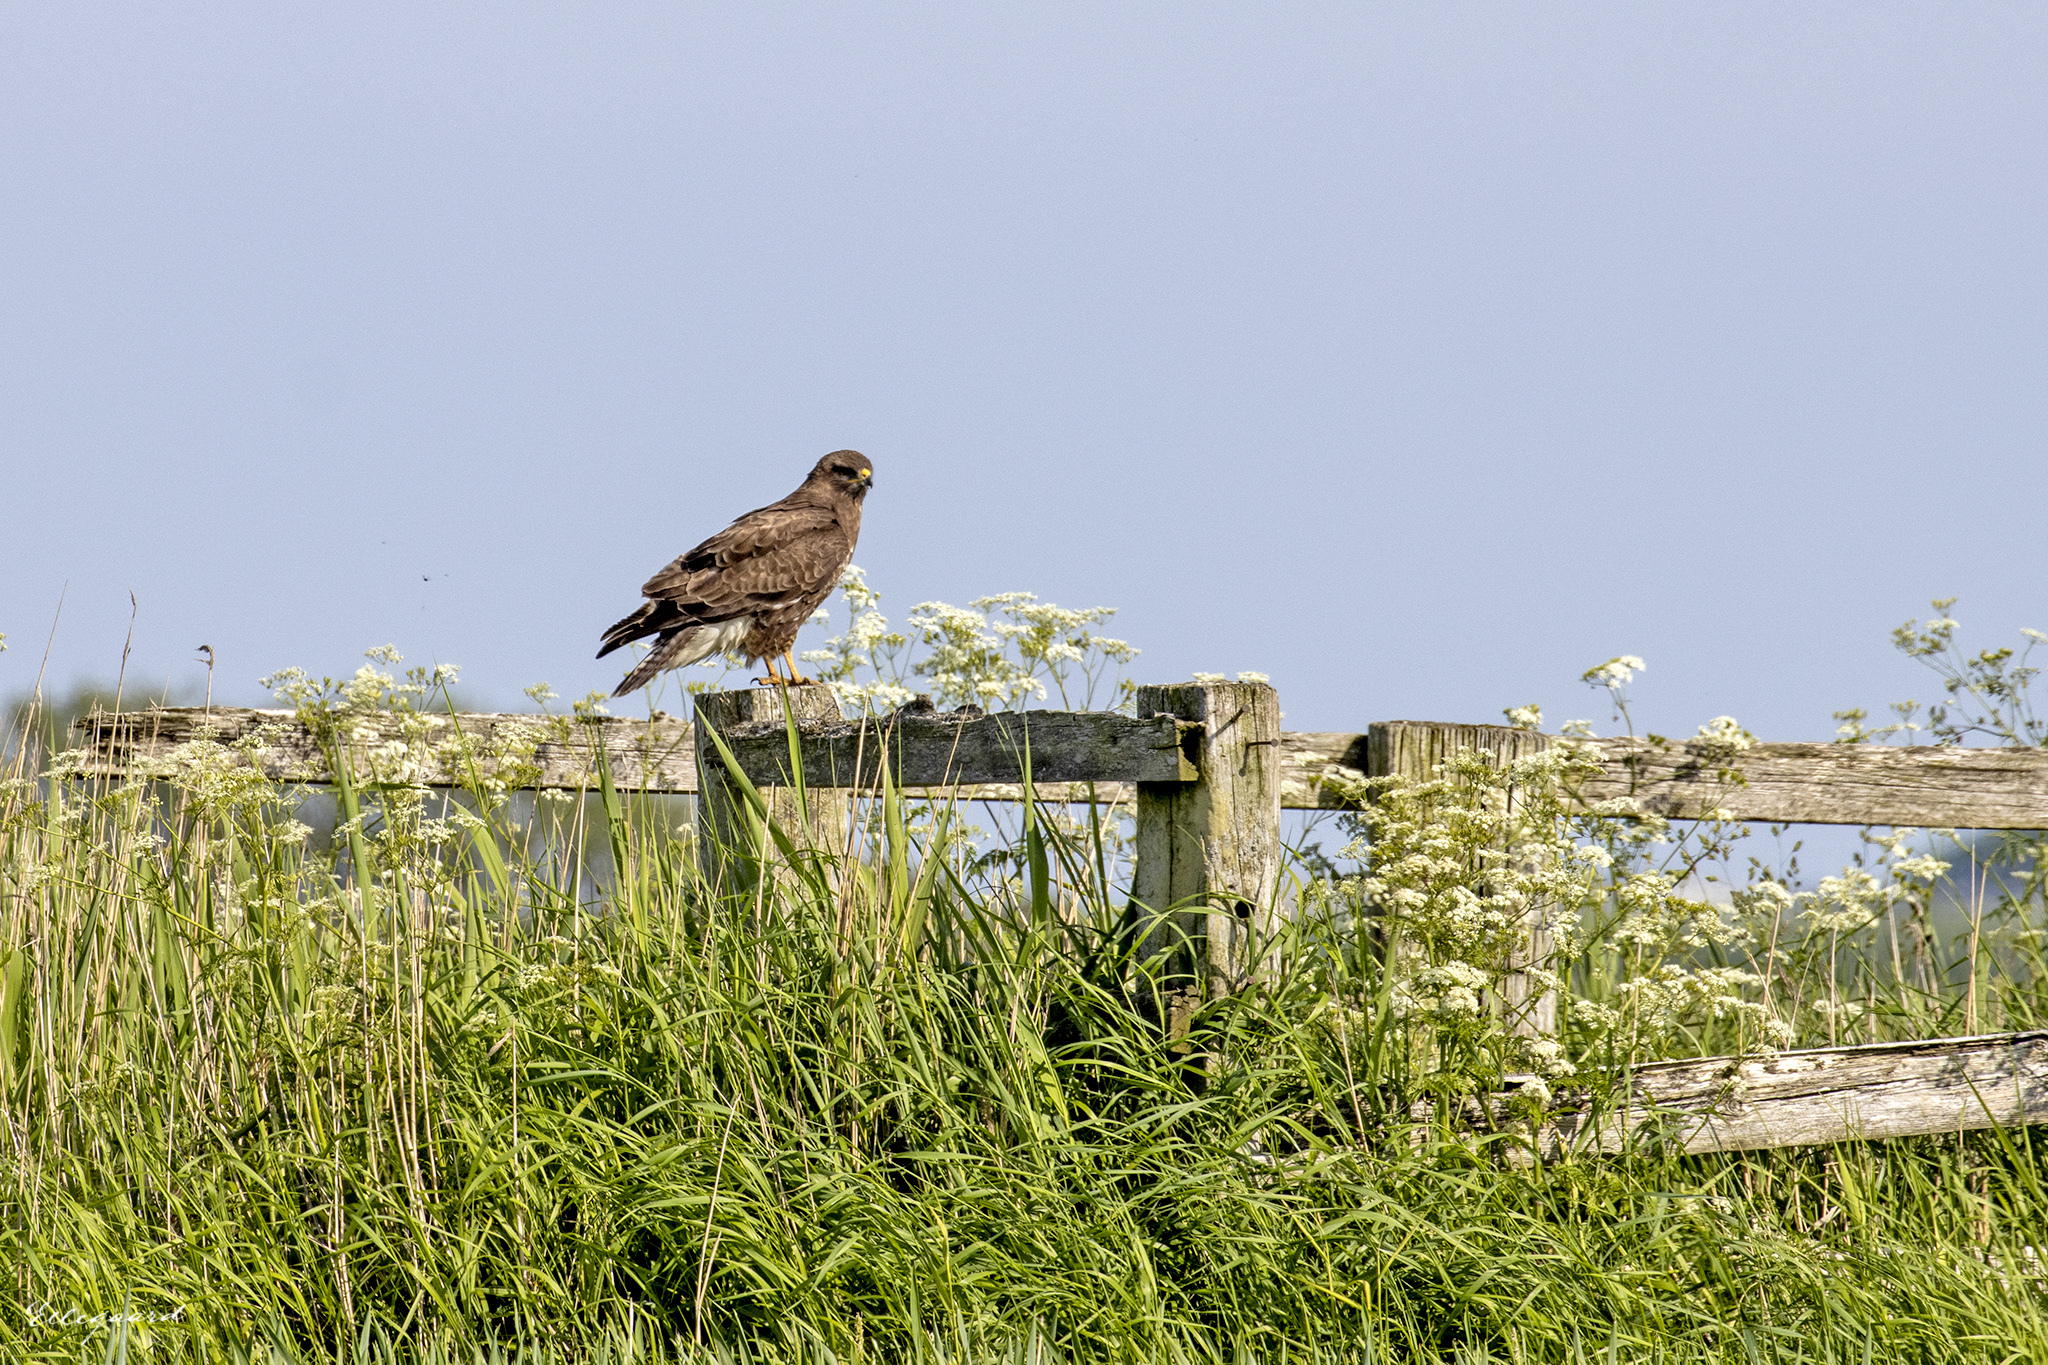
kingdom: Animalia
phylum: Chordata
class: Aves
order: Accipitriformes
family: Accipitridae
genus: Buteo
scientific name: Buteo buteo
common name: Common buzzard
